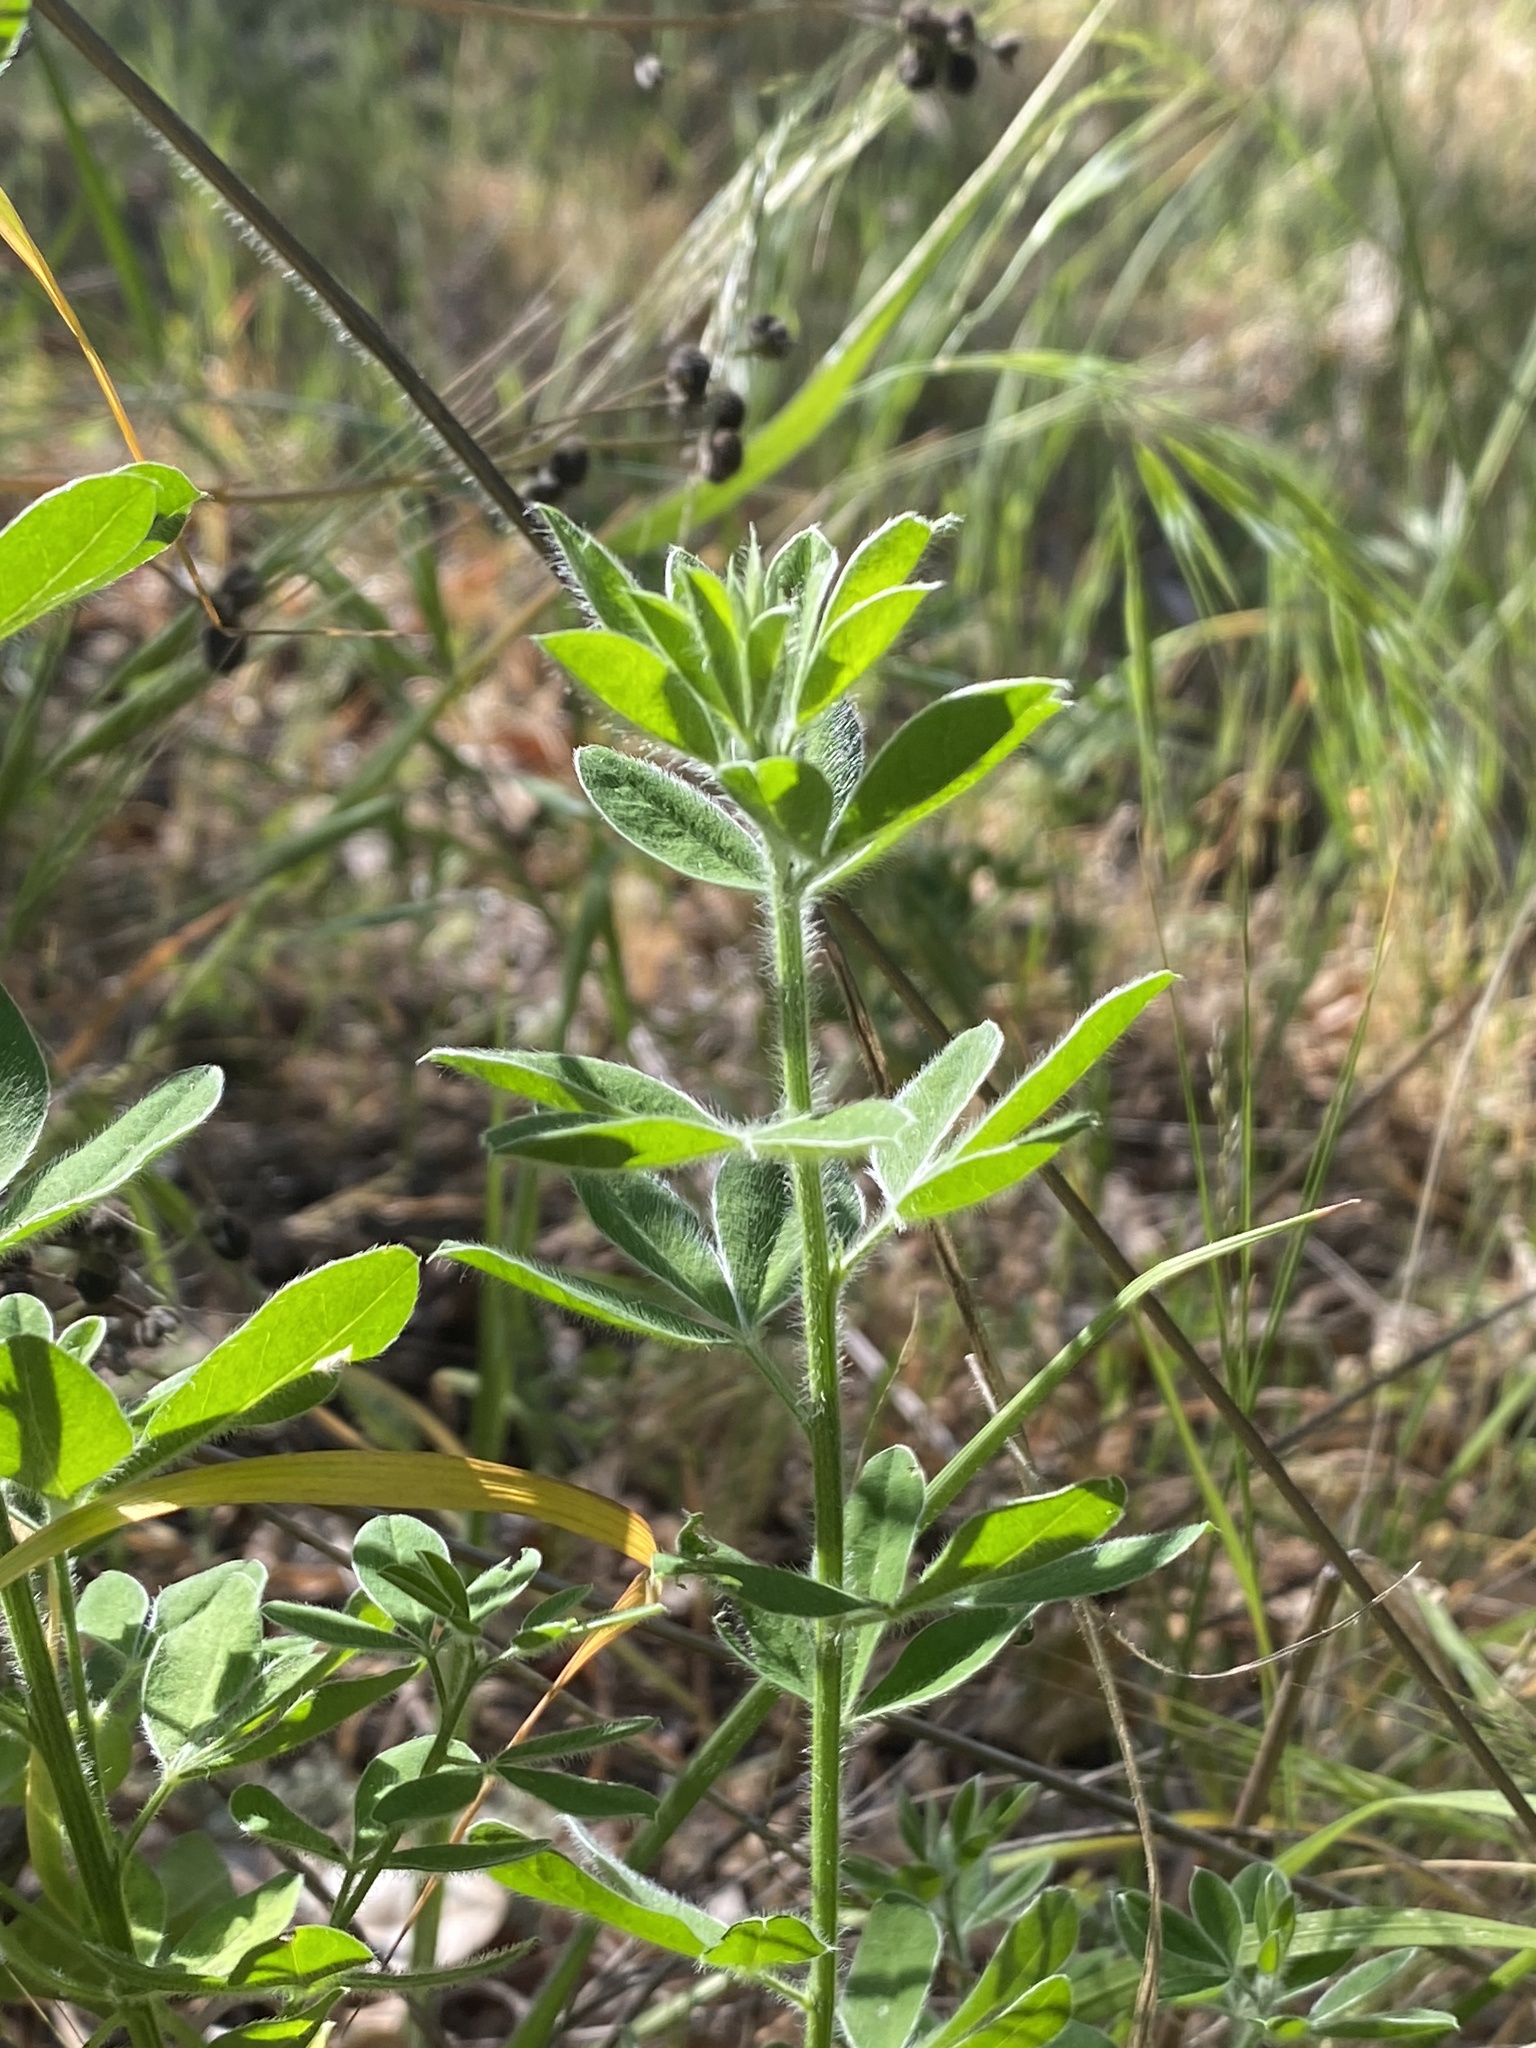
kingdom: Plantae
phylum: Tracheophyta
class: Magnoliopsida
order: Fabales
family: Fabaceae
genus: Genista
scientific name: Genista monspessulana
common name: Montpellier broom
